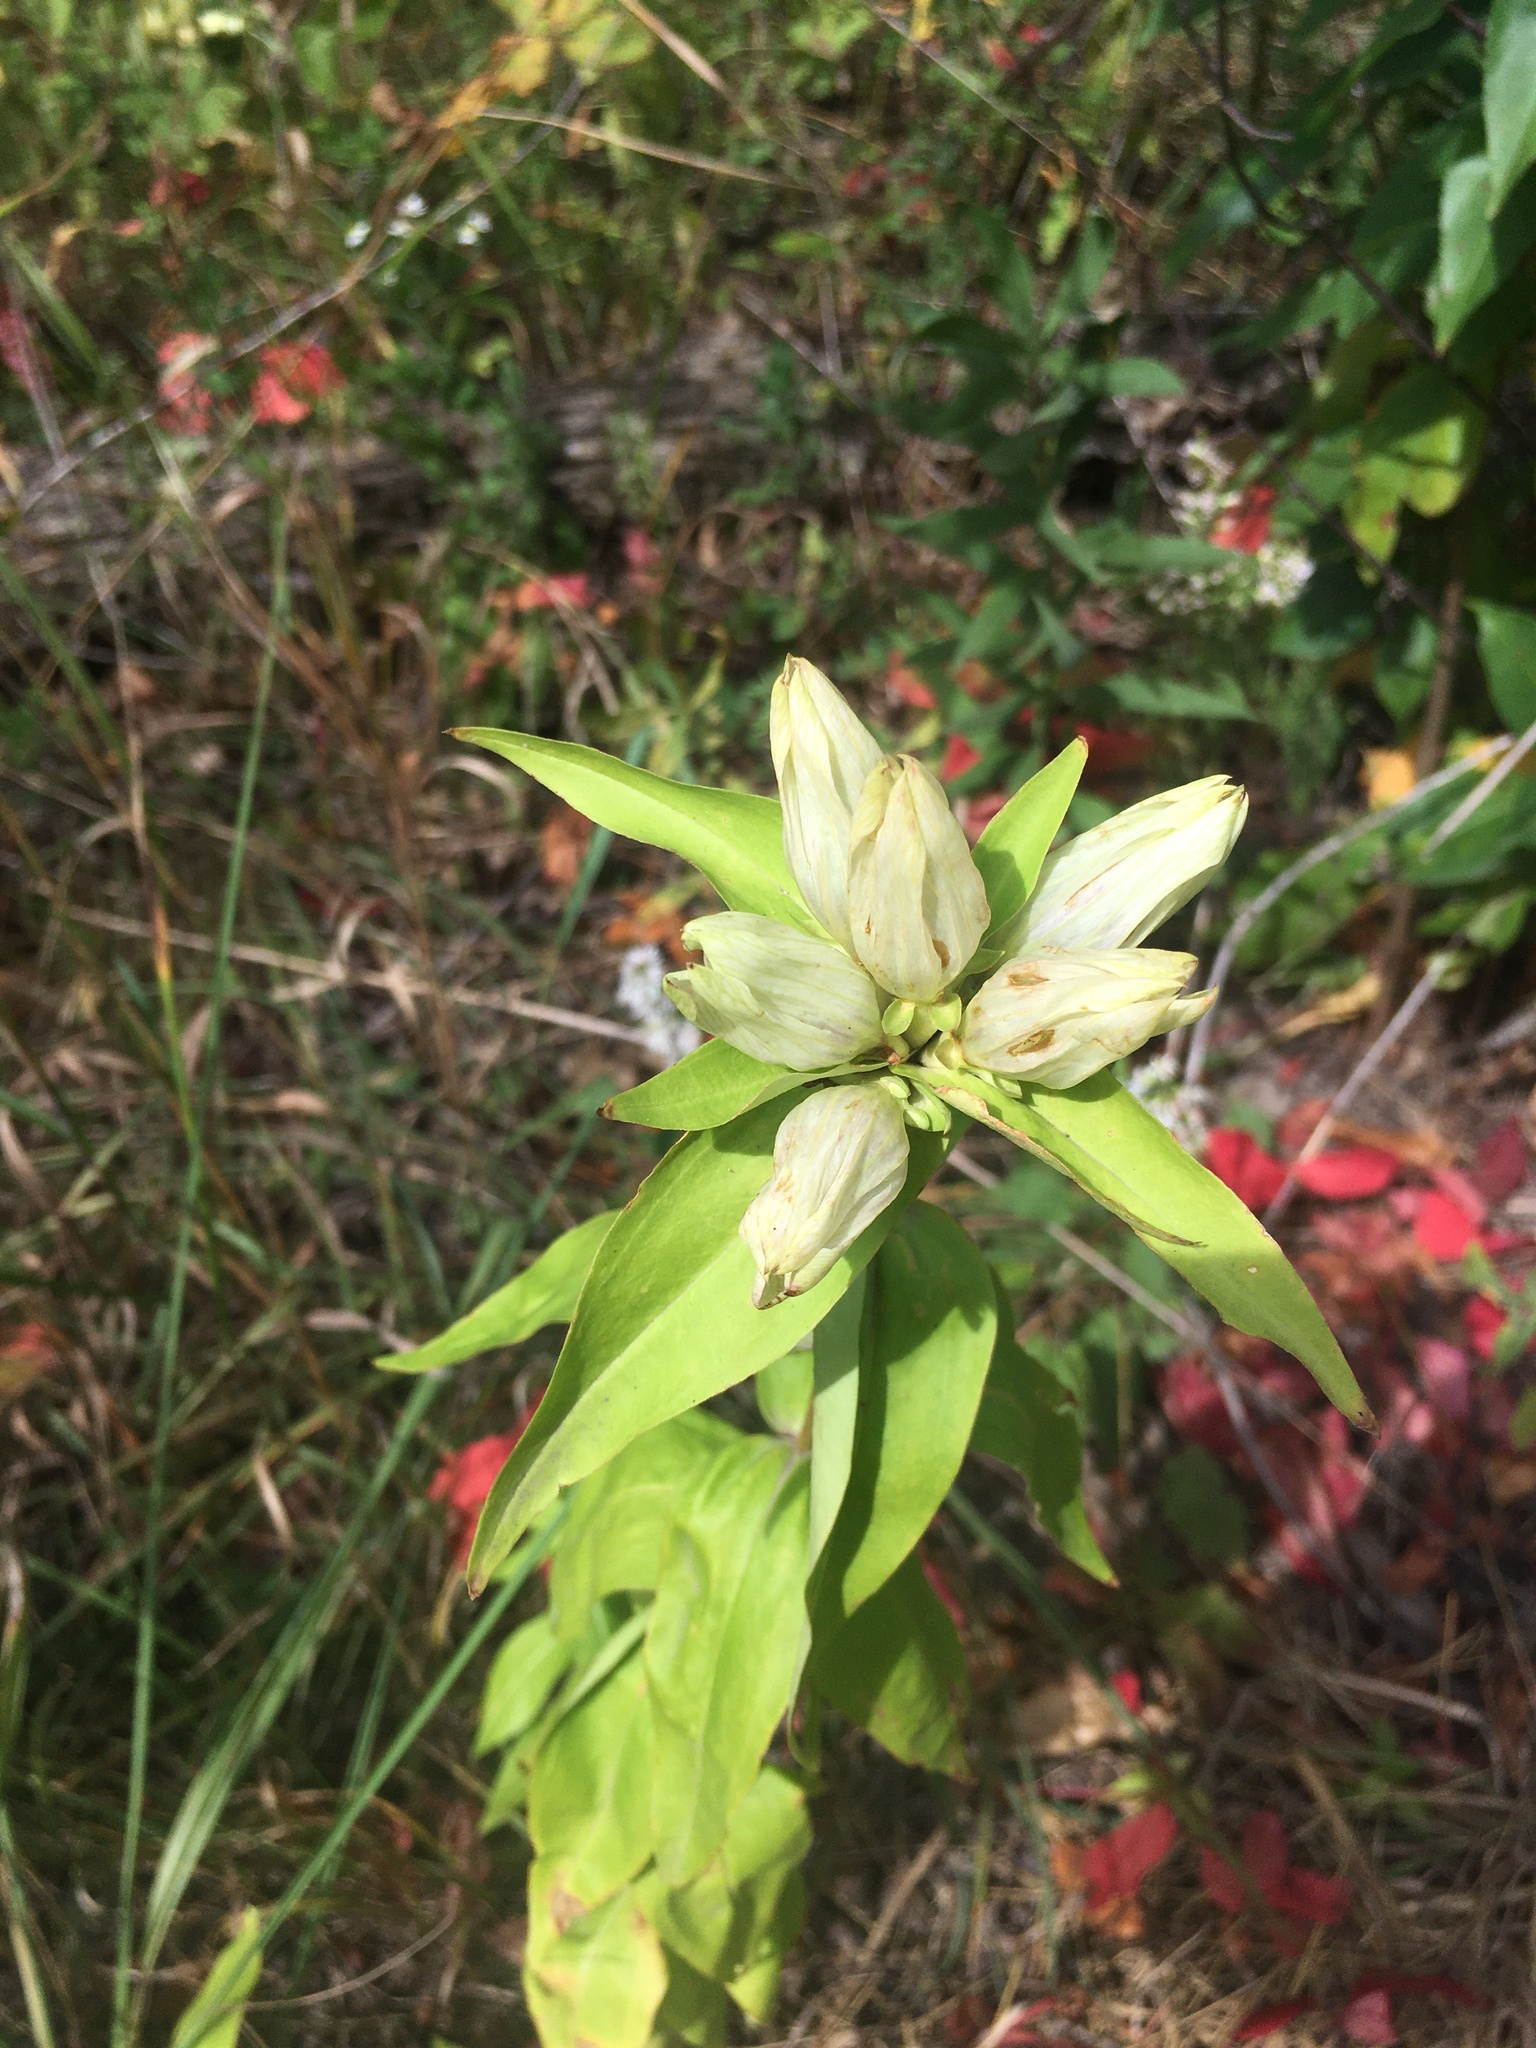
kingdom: Plantae
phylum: Tracheophyta
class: Magnoliopsida
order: Gentianales
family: Gentianaceae
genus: Gentiana
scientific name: Gentiana alba
